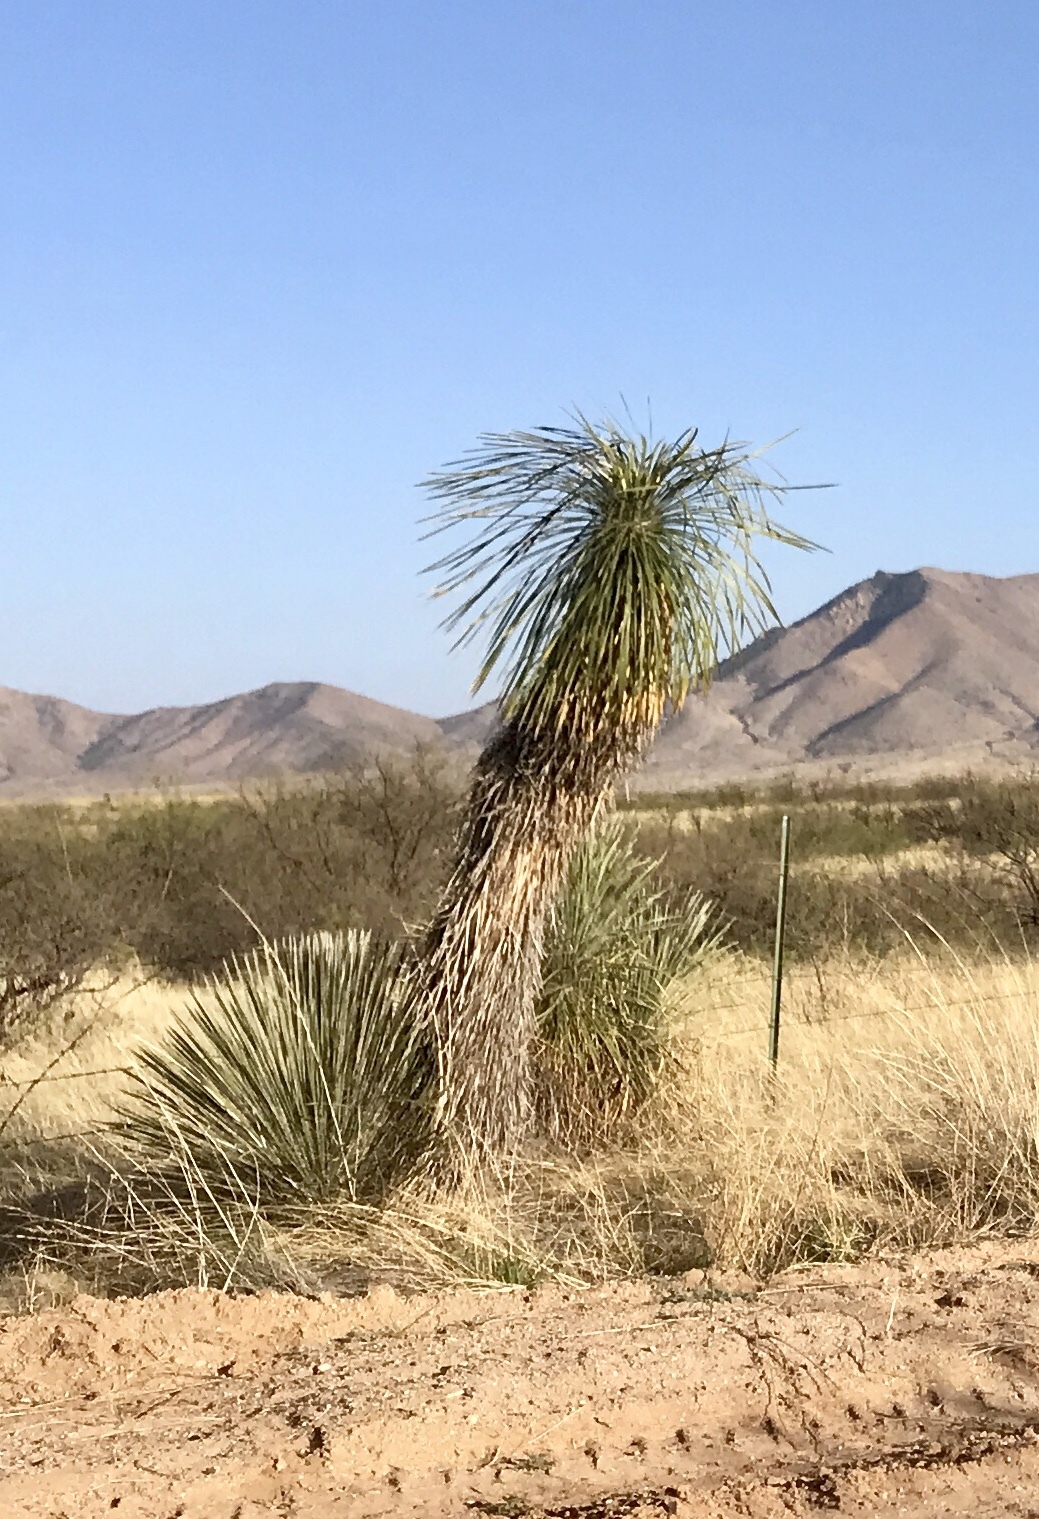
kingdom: Plantae
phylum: Tracheophyta
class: Liliopsida
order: Asparagales
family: Asparagaceae
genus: Yucca
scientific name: Yucca elata
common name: Palmella
